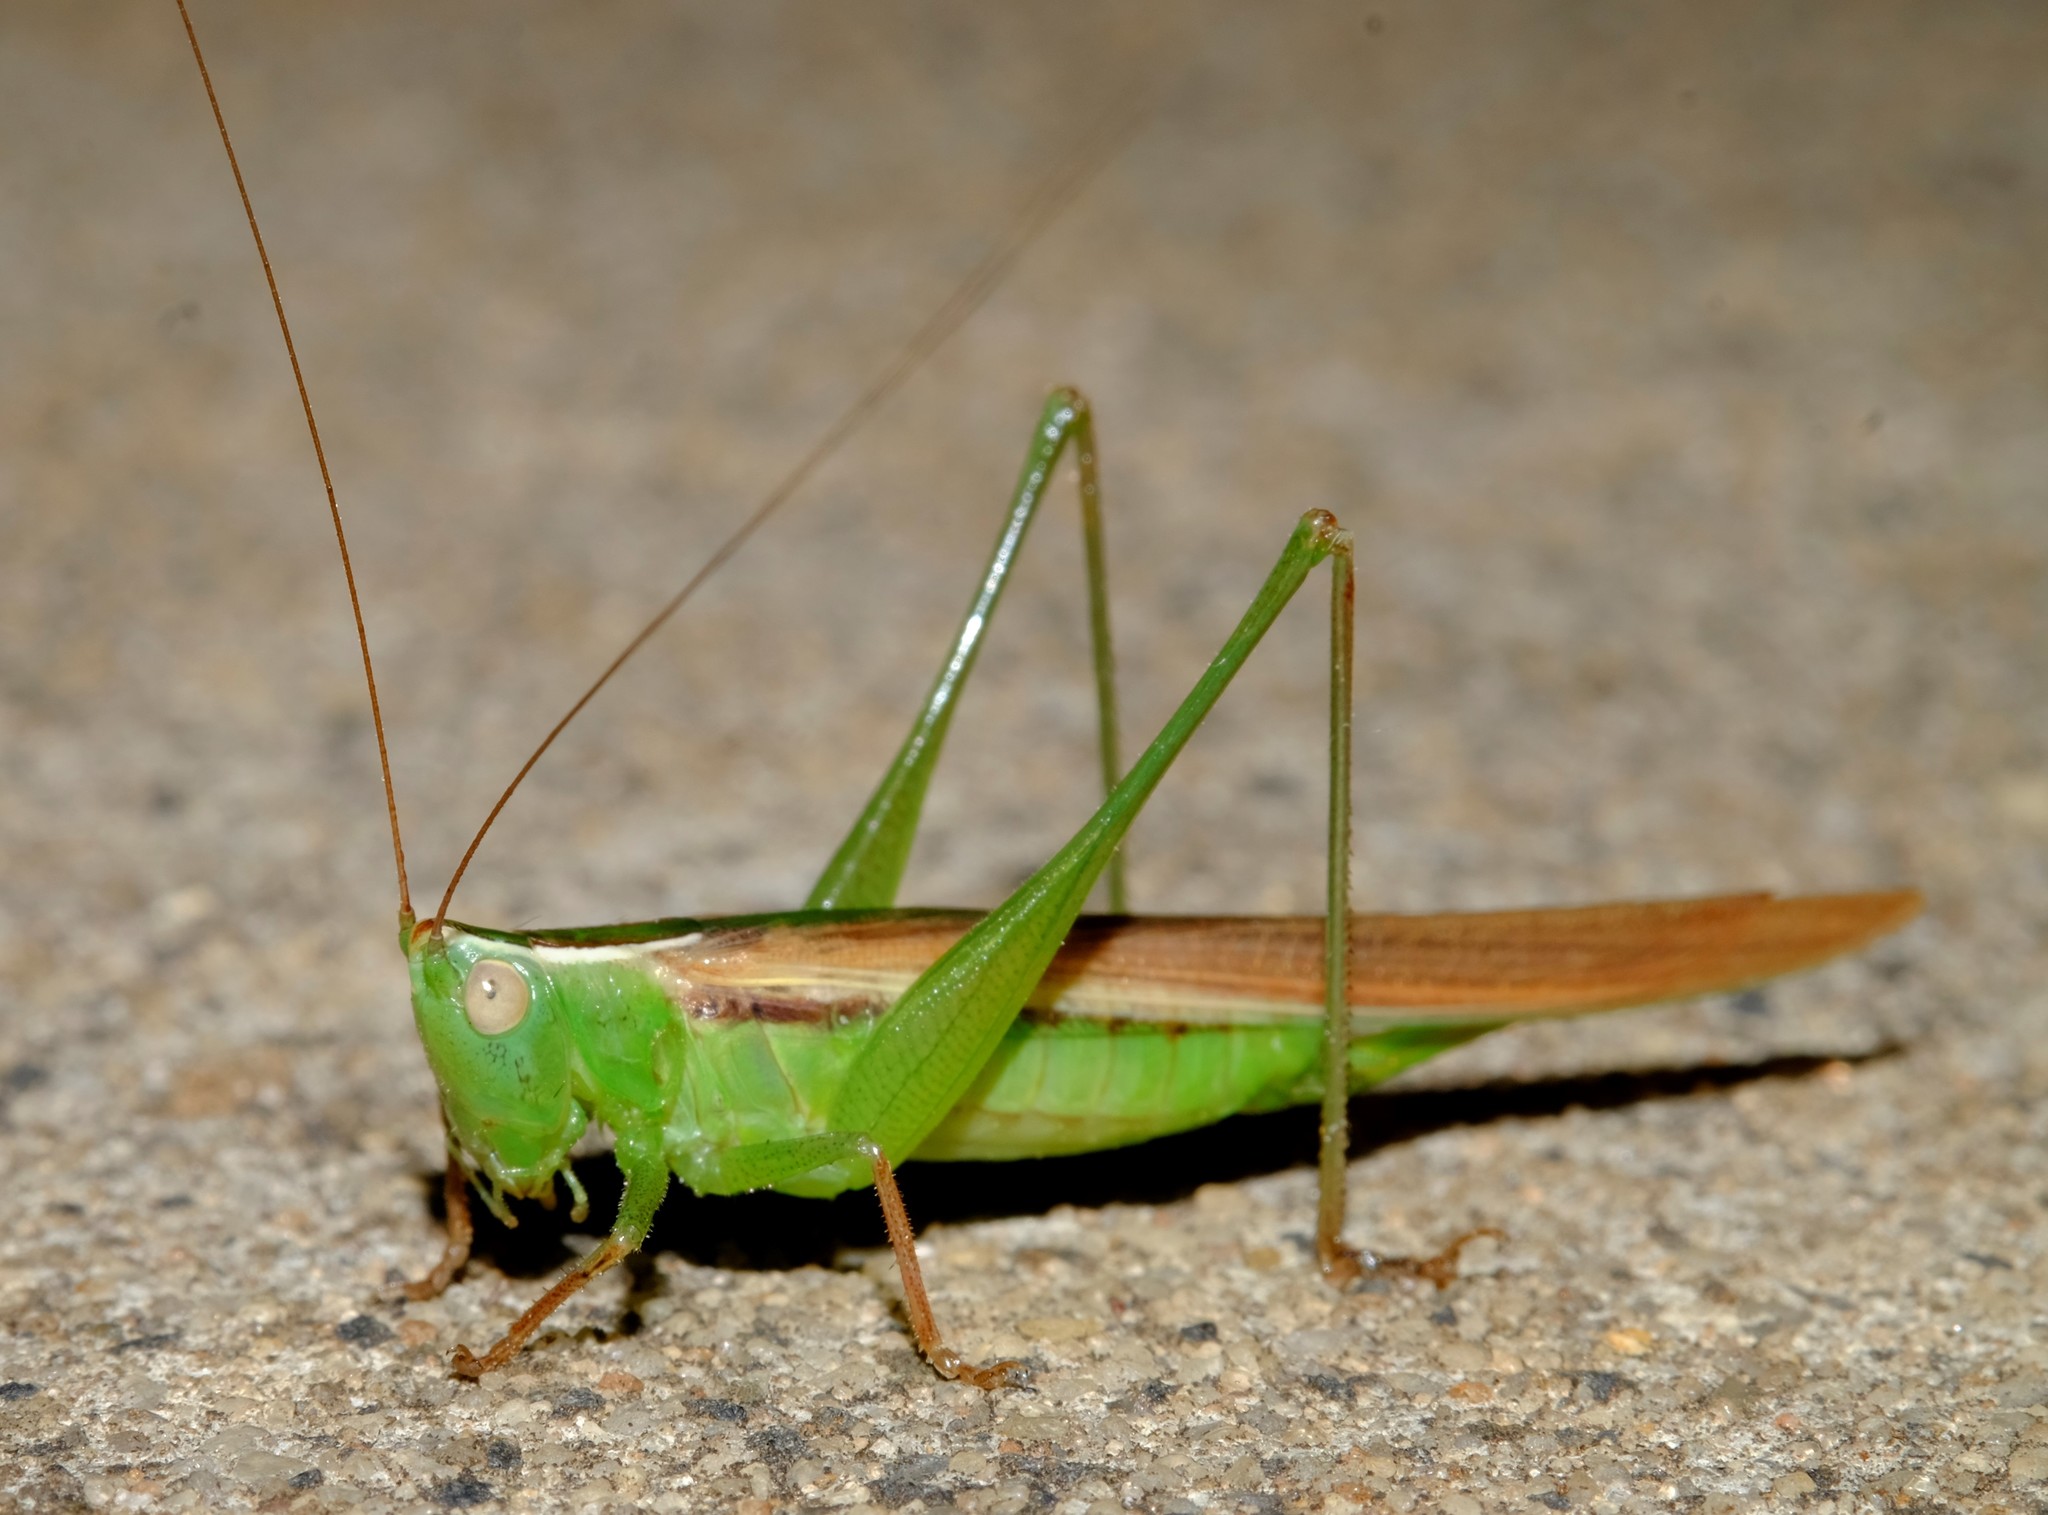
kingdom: Animalia
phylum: Arthropoda
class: Insecta
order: Orthoptera
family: Tettigoniidae
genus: Conocephalus
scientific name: Conocephalus upoluensis
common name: Upolu meadow katydid
